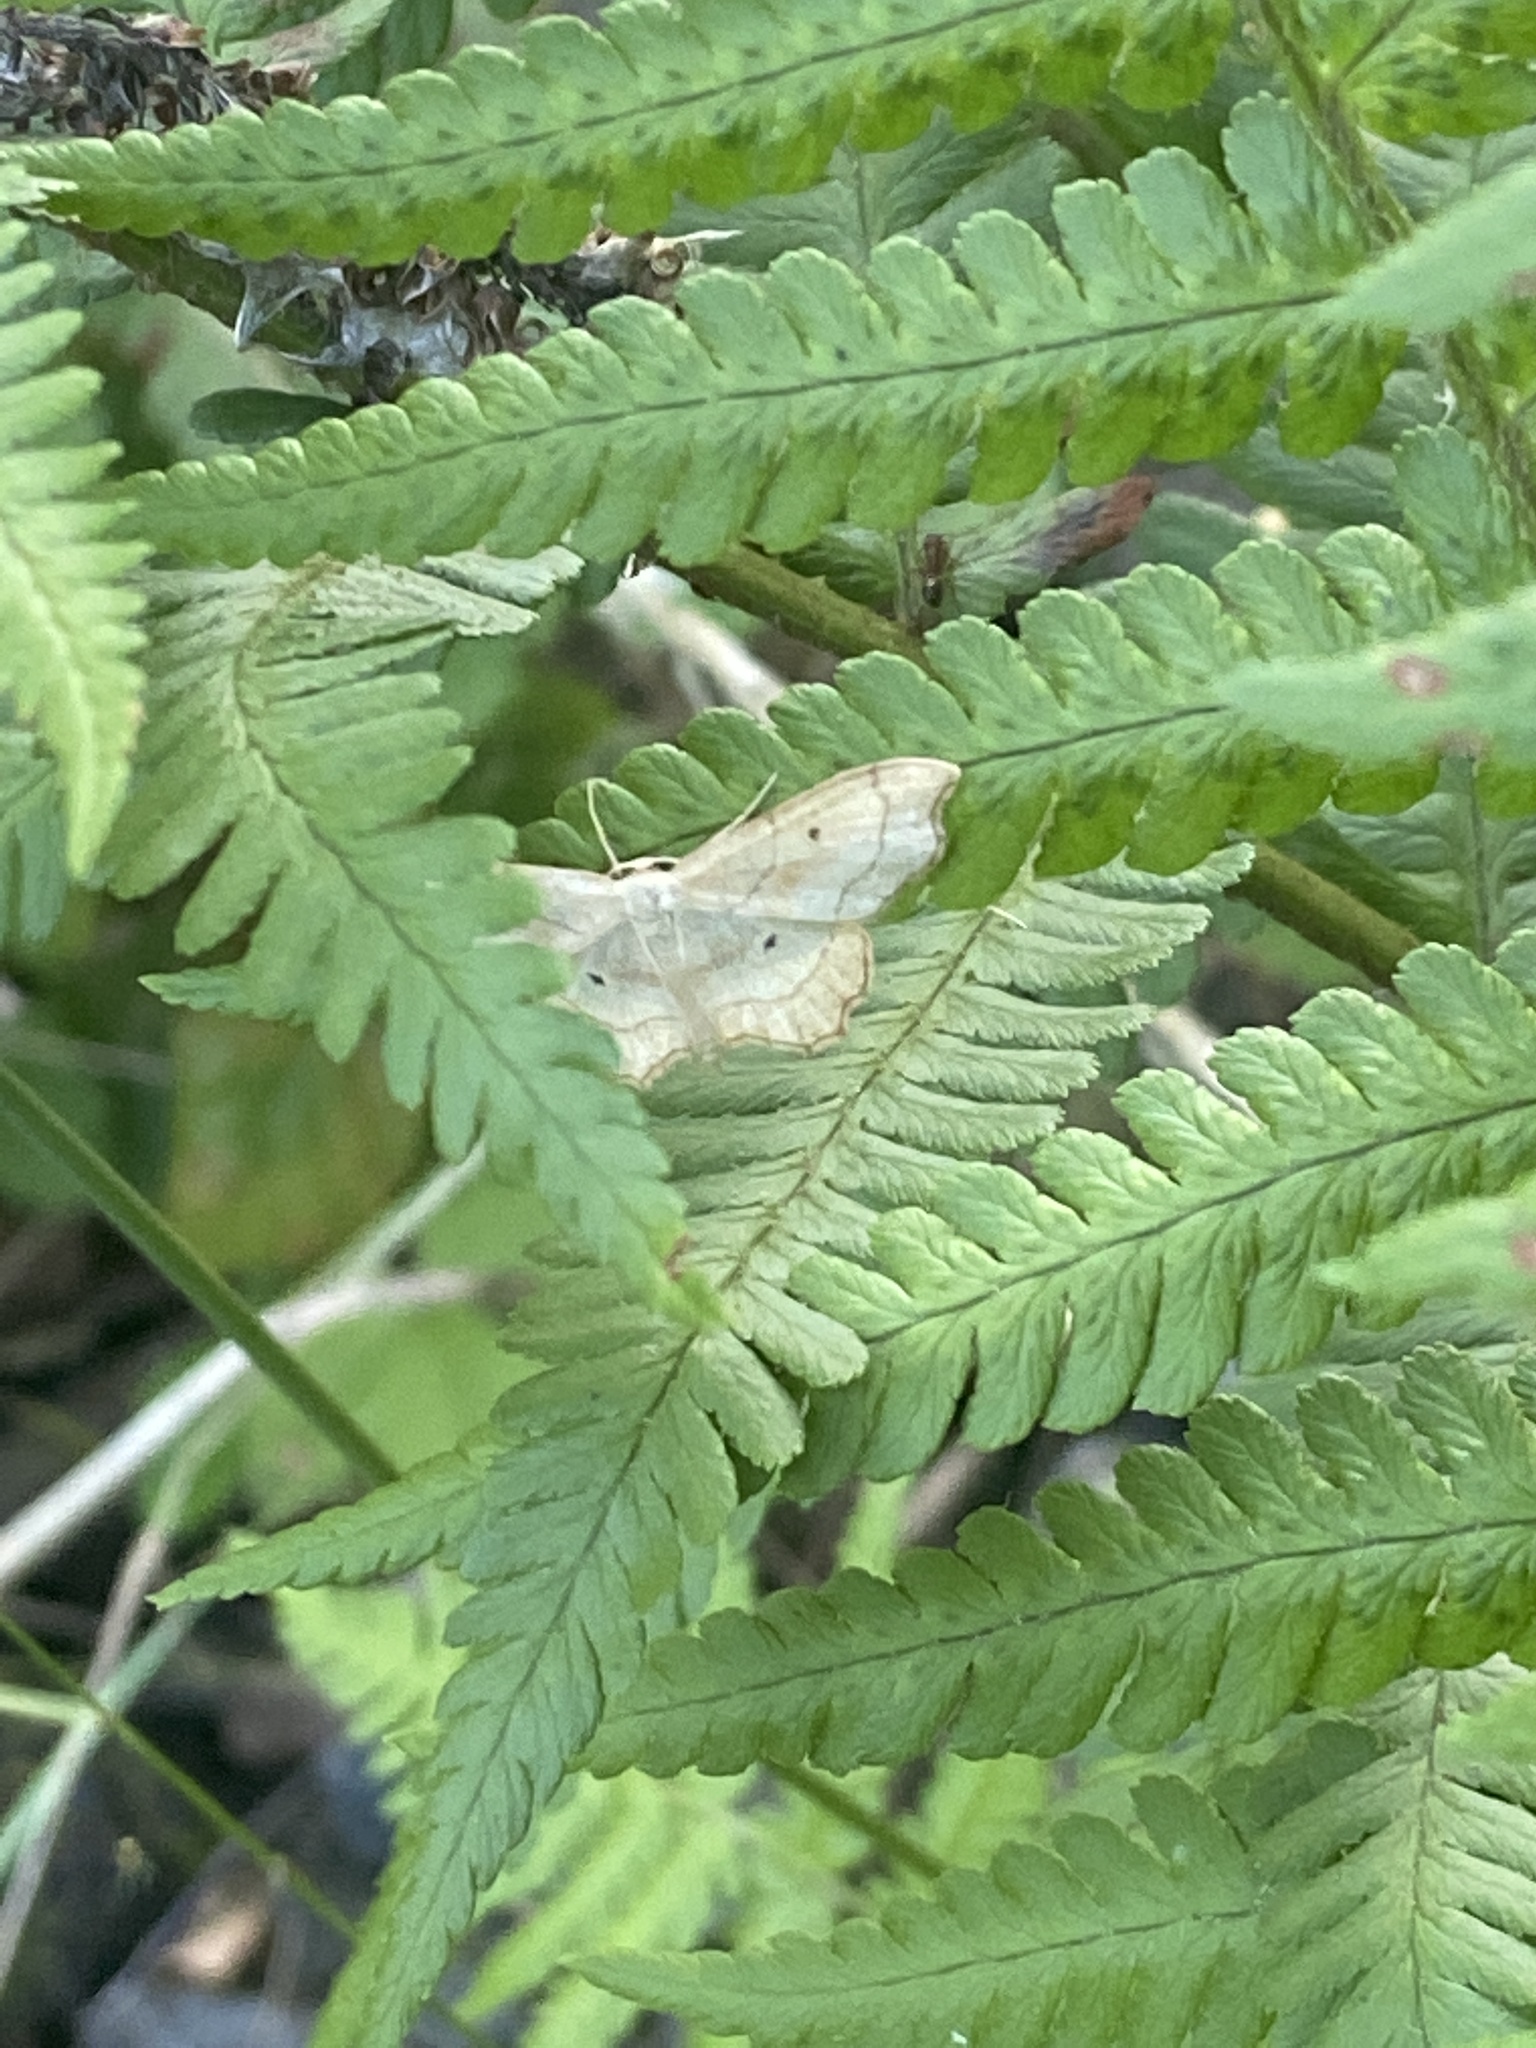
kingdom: Animalia
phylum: Arthropoda
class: Insecta
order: Lepidoptera
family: Geometridae
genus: Idaea
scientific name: Idaea emarginata
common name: Small scallop
